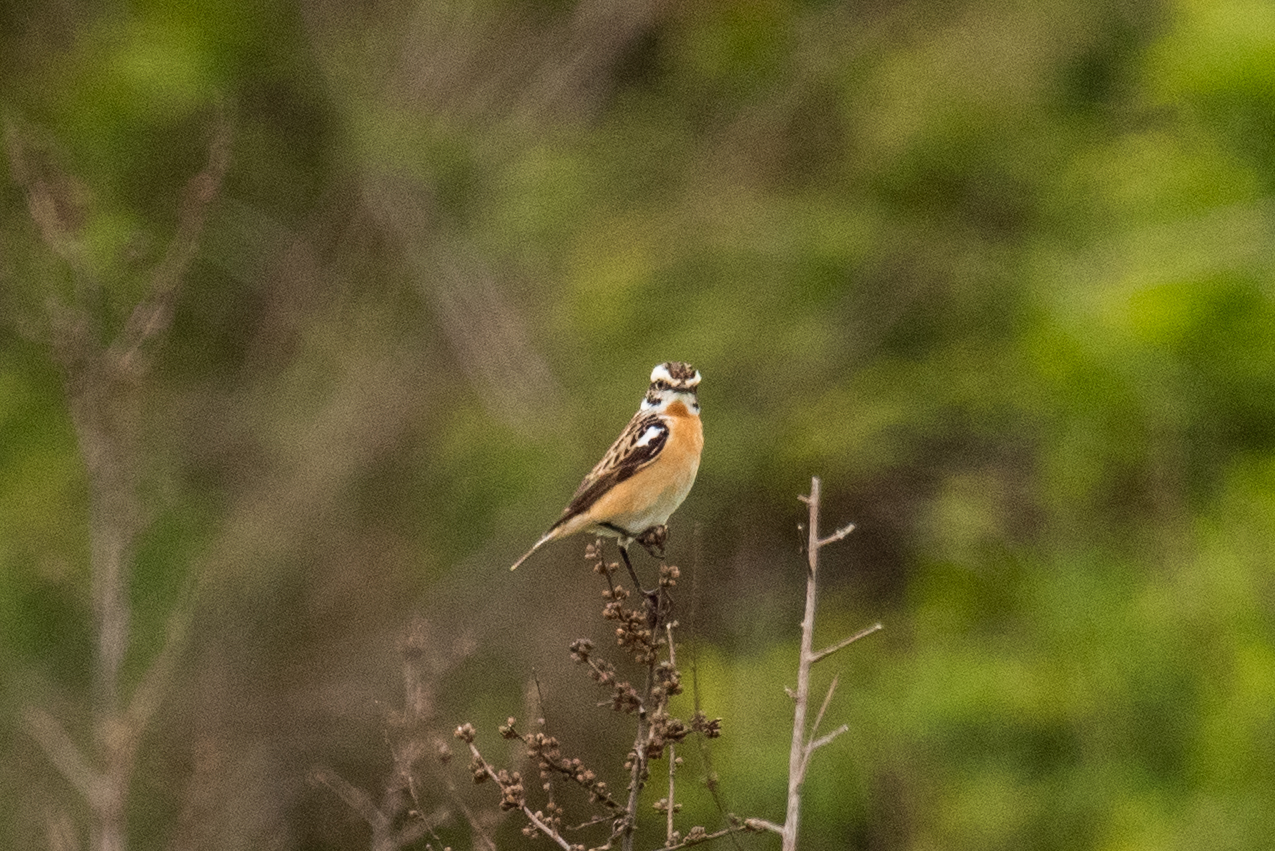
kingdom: Animalia
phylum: Chordata
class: Aves
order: Passeriformes
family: Muscicapidae
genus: Saxicola
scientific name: Saxicola rubetra
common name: Whinchat
